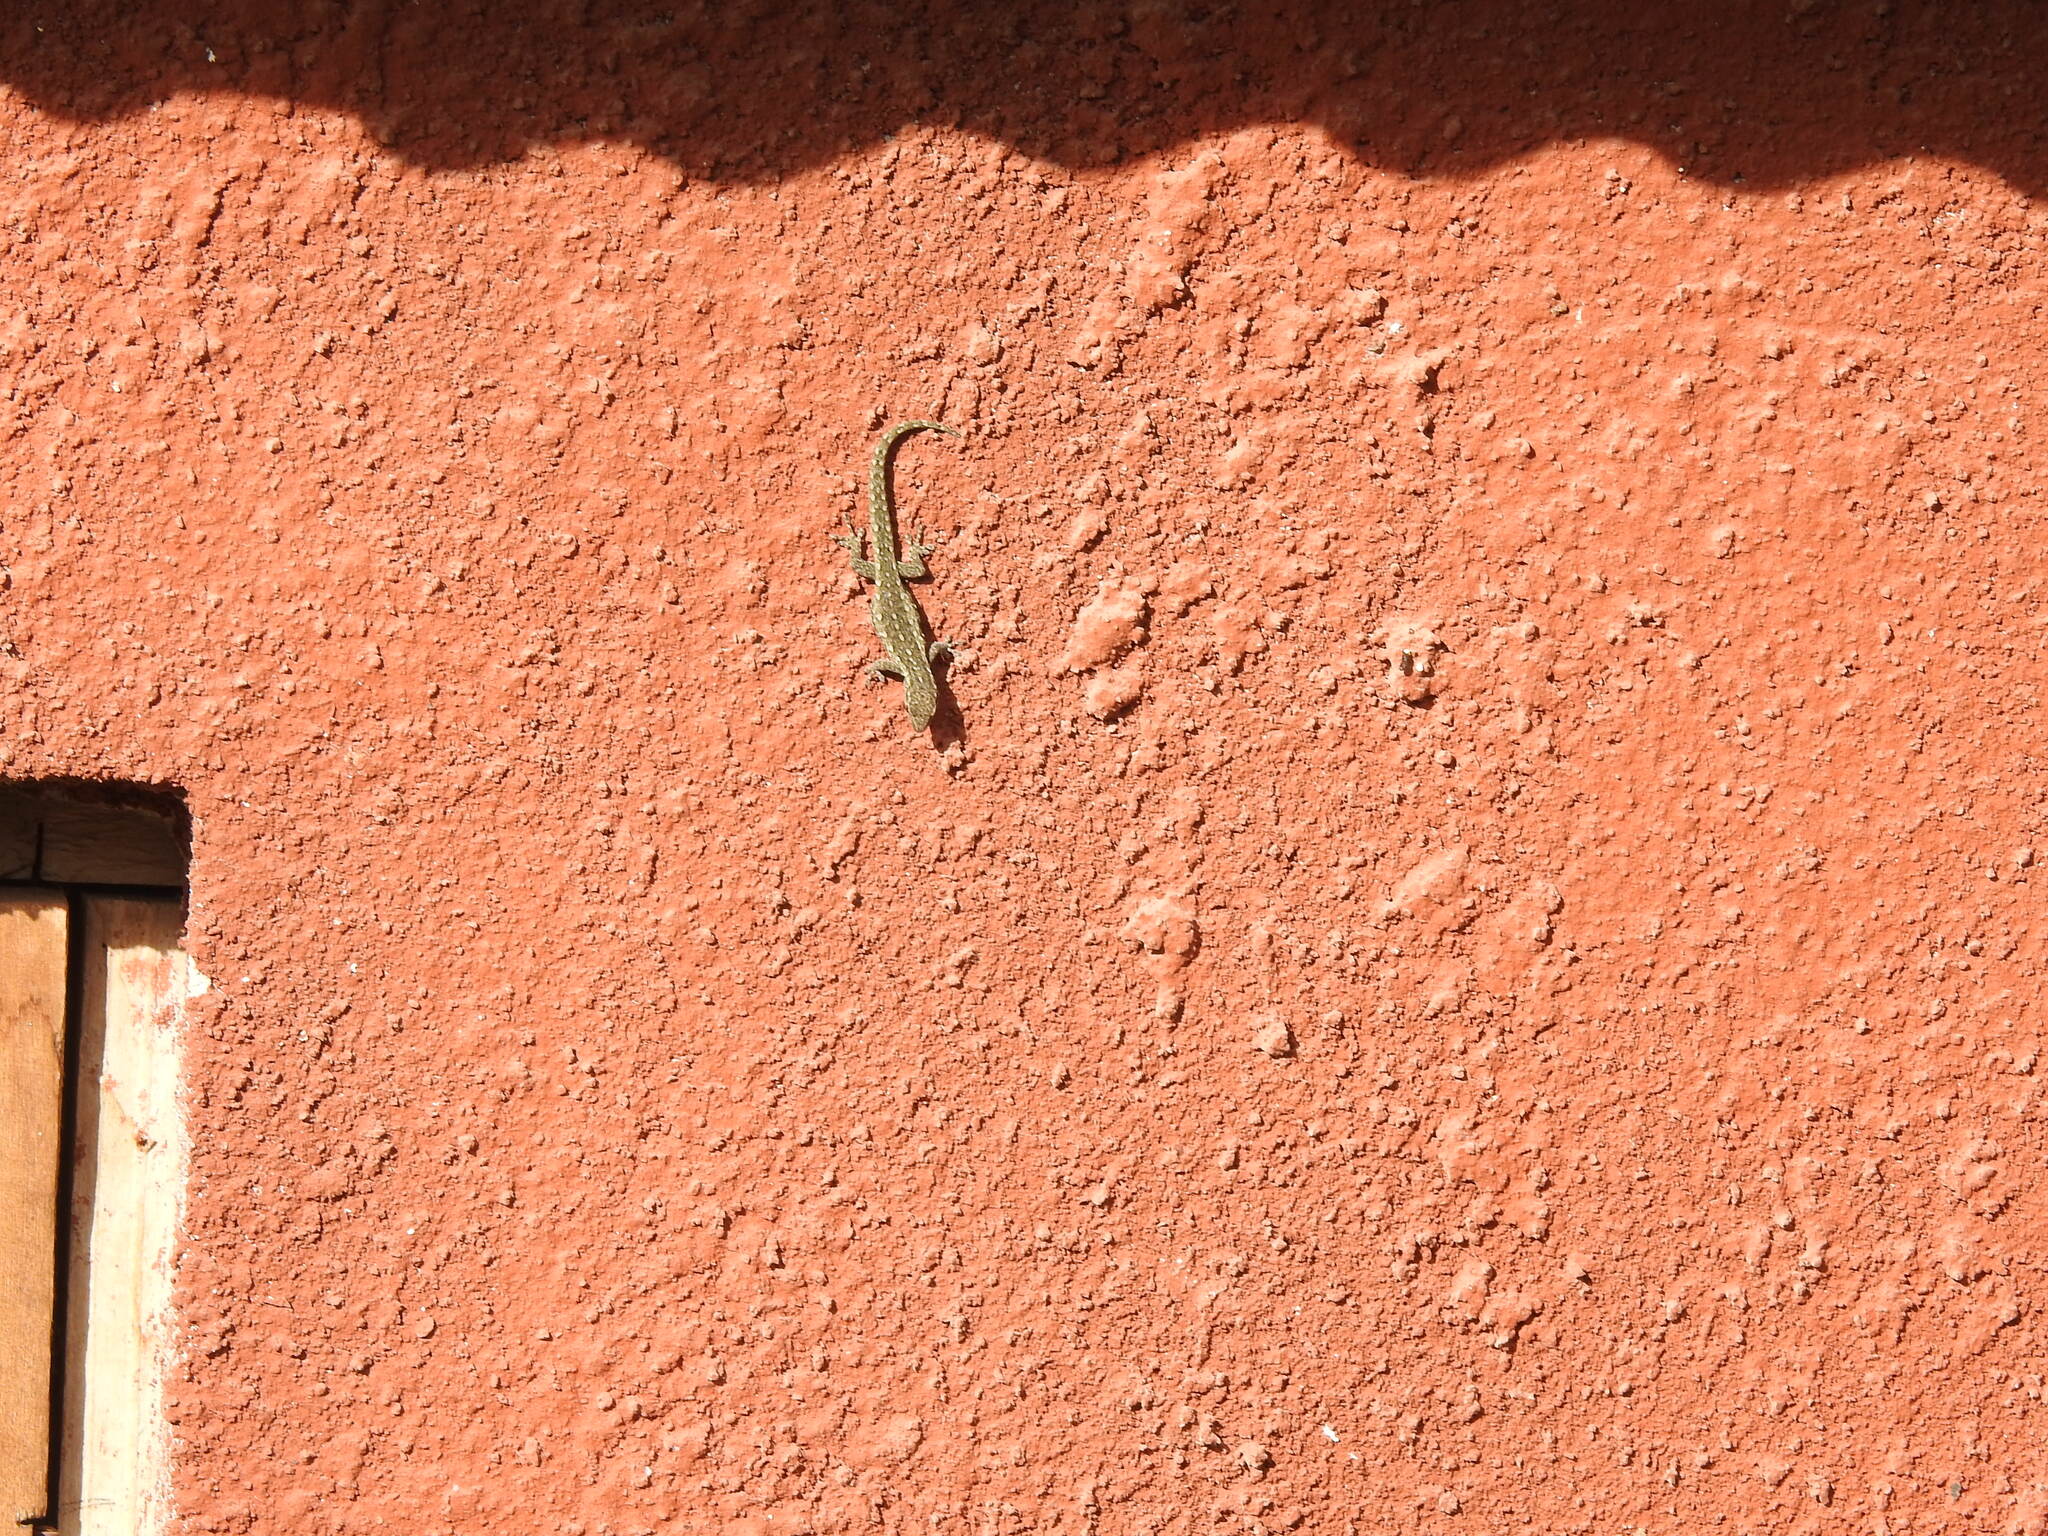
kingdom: Animalia
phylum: Chordata
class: Squamata
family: Gekkonidae
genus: Lygodactylus
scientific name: Lygodactylus angularis
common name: Angulate dwarf gecko
